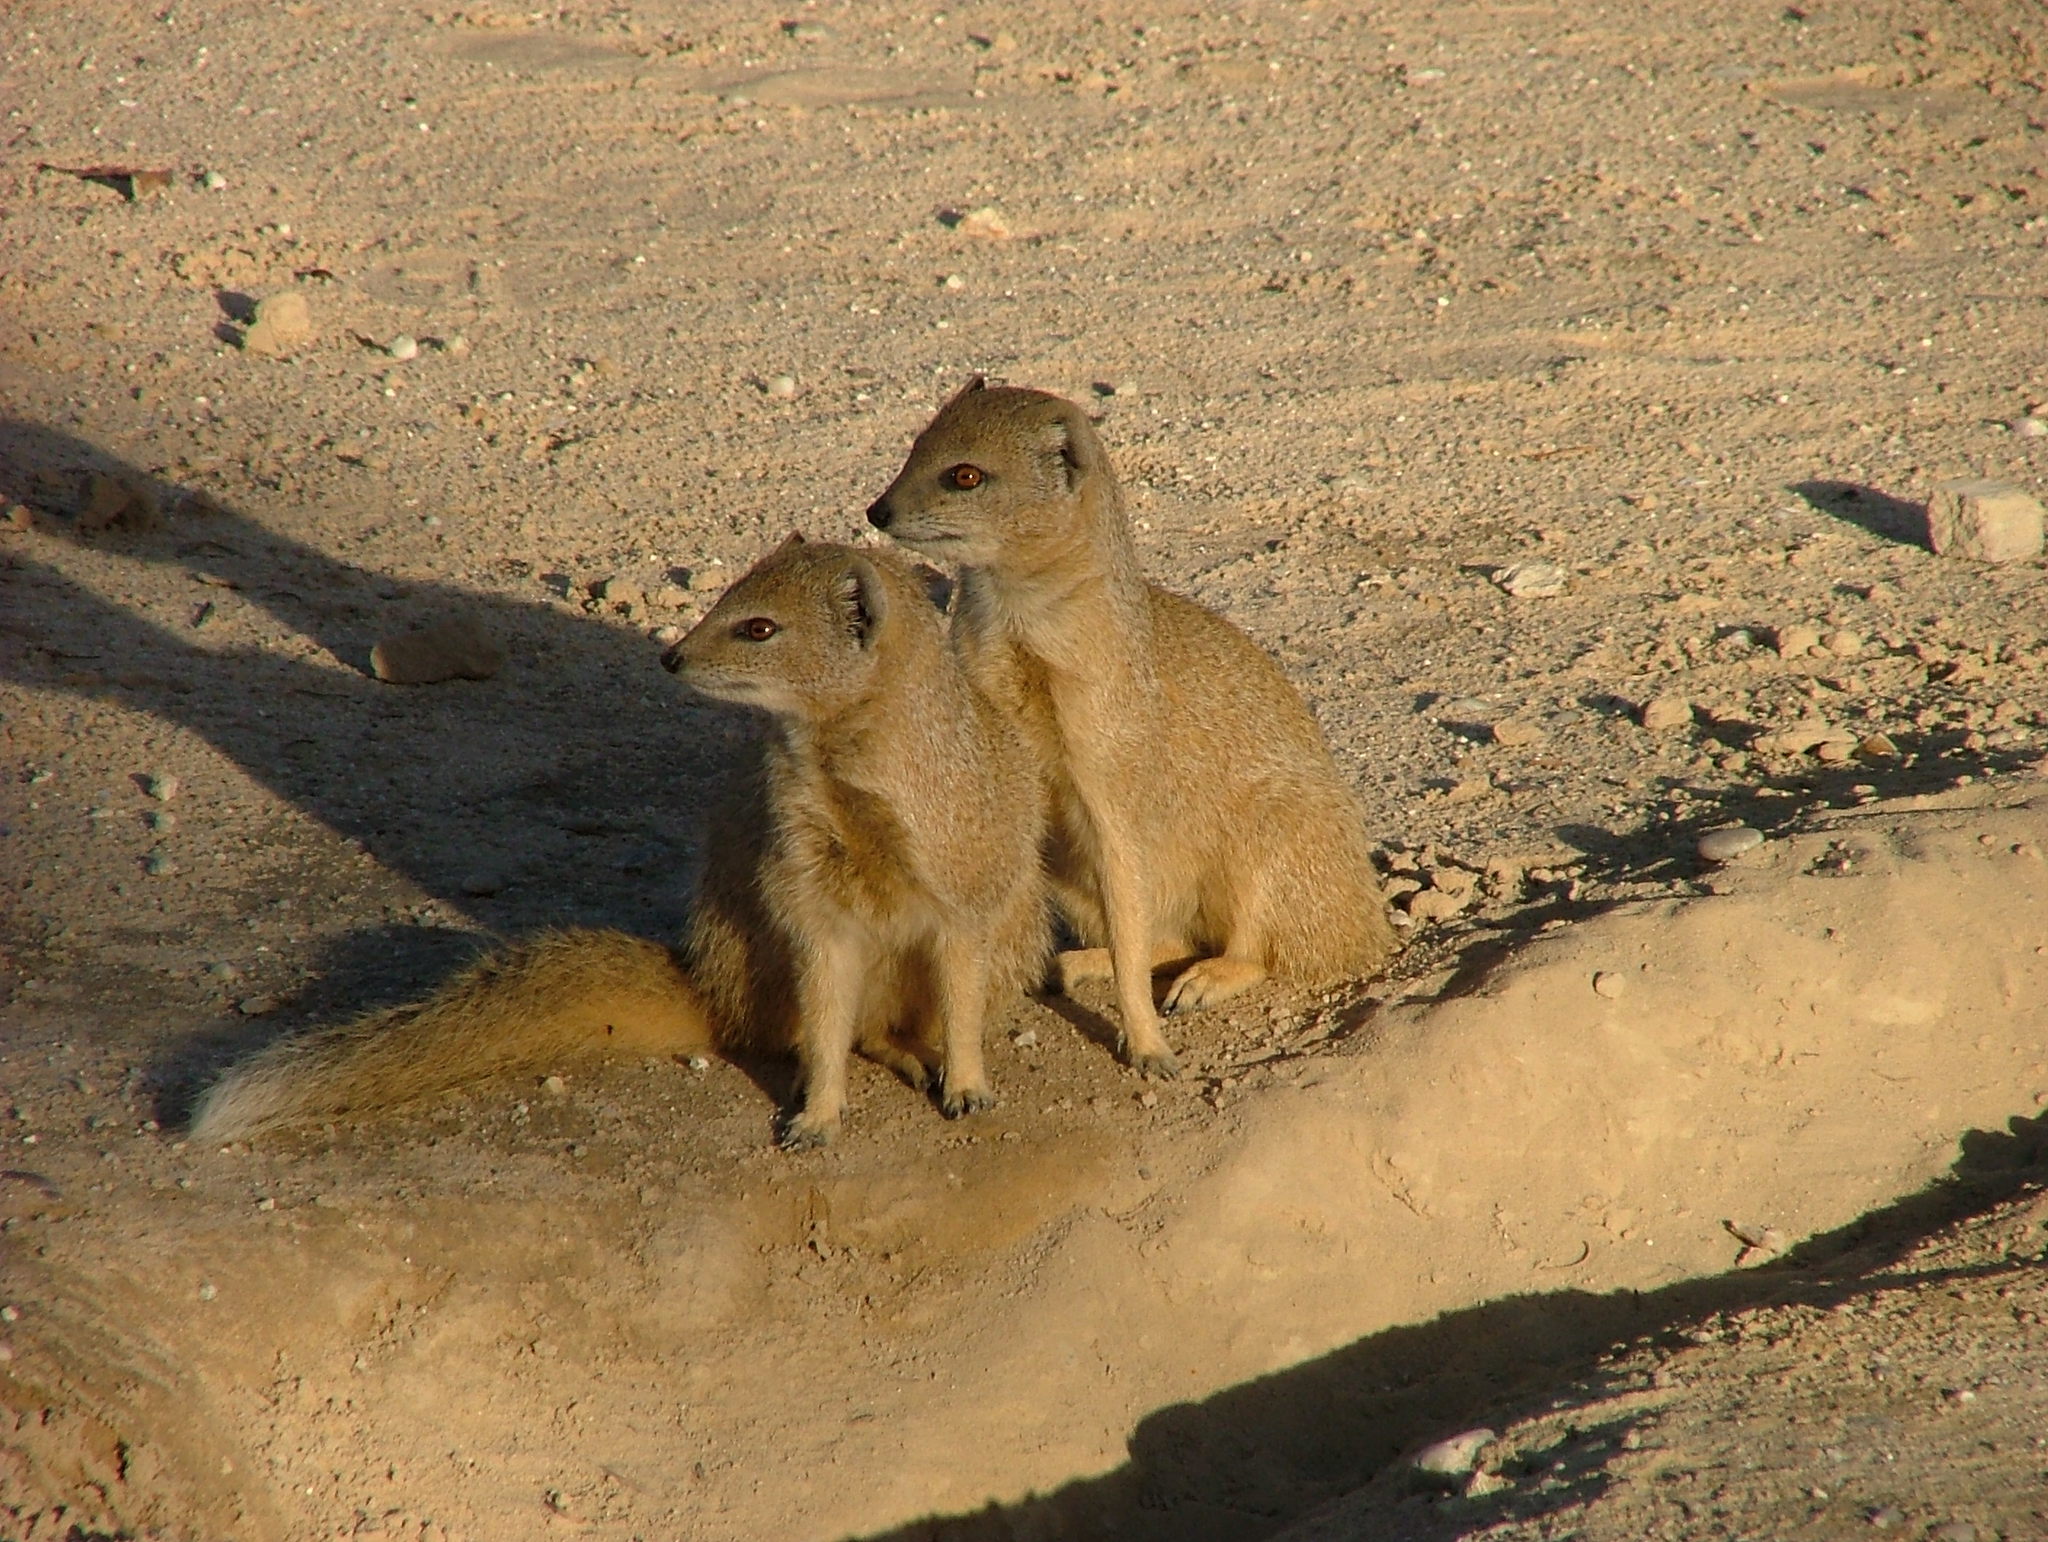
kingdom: Animalia
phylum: Chordata
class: Mammalia
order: Carnivora
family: Herpestidae
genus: Cynictis
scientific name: Cynictis penicillata
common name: Yellow mongoose
